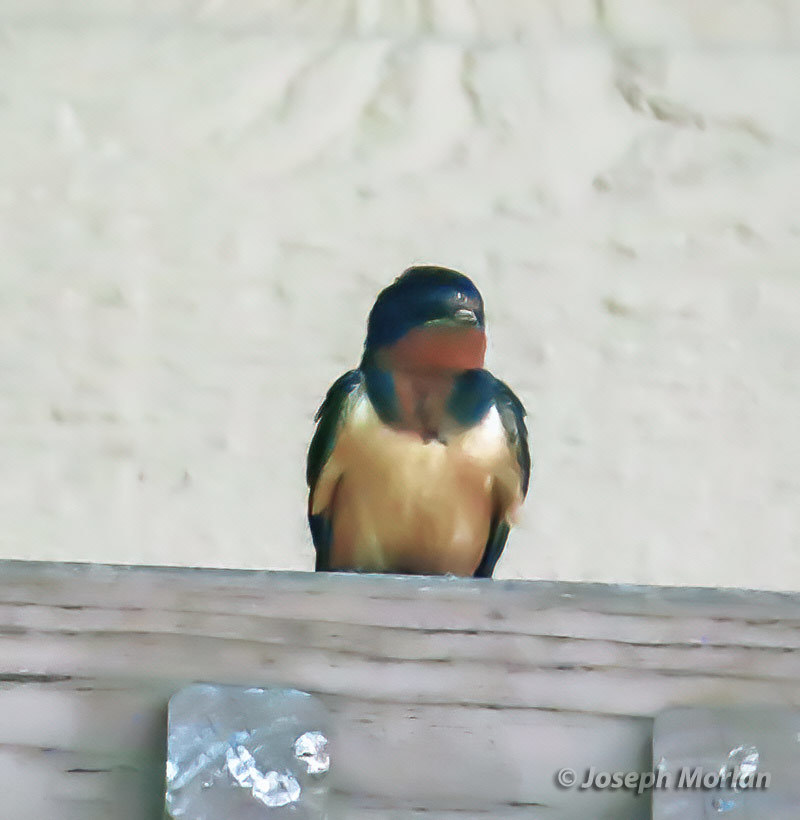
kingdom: Animalia
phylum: Chordata
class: Aves
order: Passeriformes
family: Hirundinidae
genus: Hirundo
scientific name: Hirundo rustica
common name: Barn swallow
